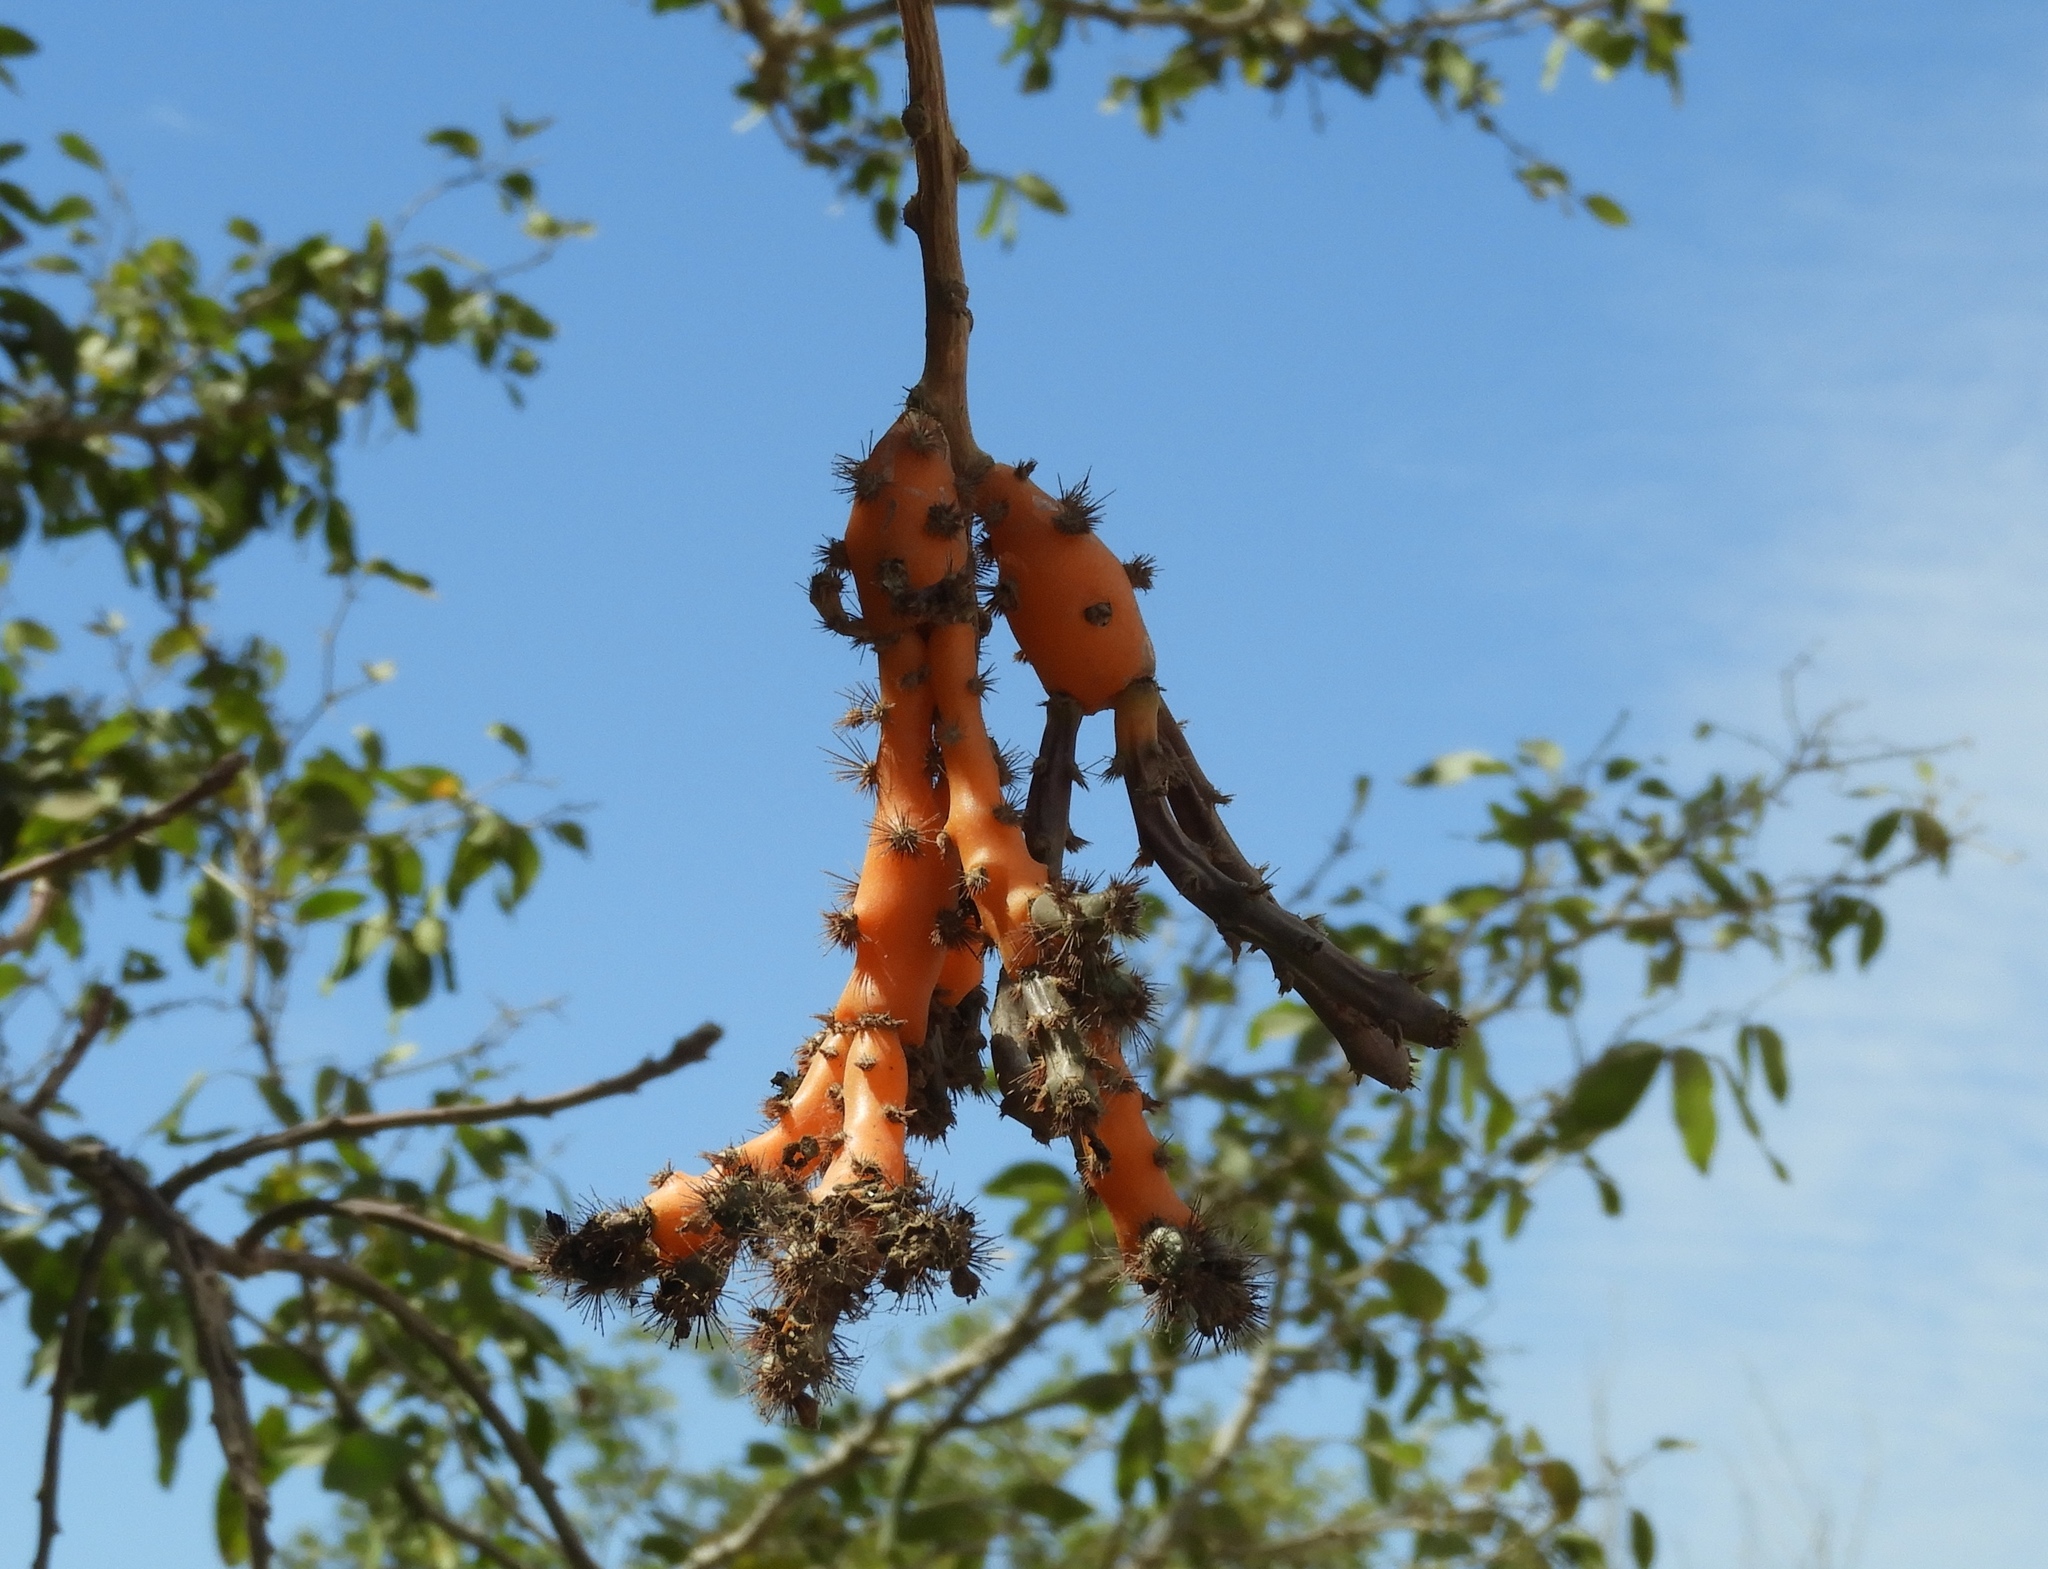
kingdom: Plantae
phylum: Tracheophyta
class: Magnoliopsida
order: Caryophyllales
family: Cactaceae
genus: Pereskiopsis
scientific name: Pereskiopsis porteri
